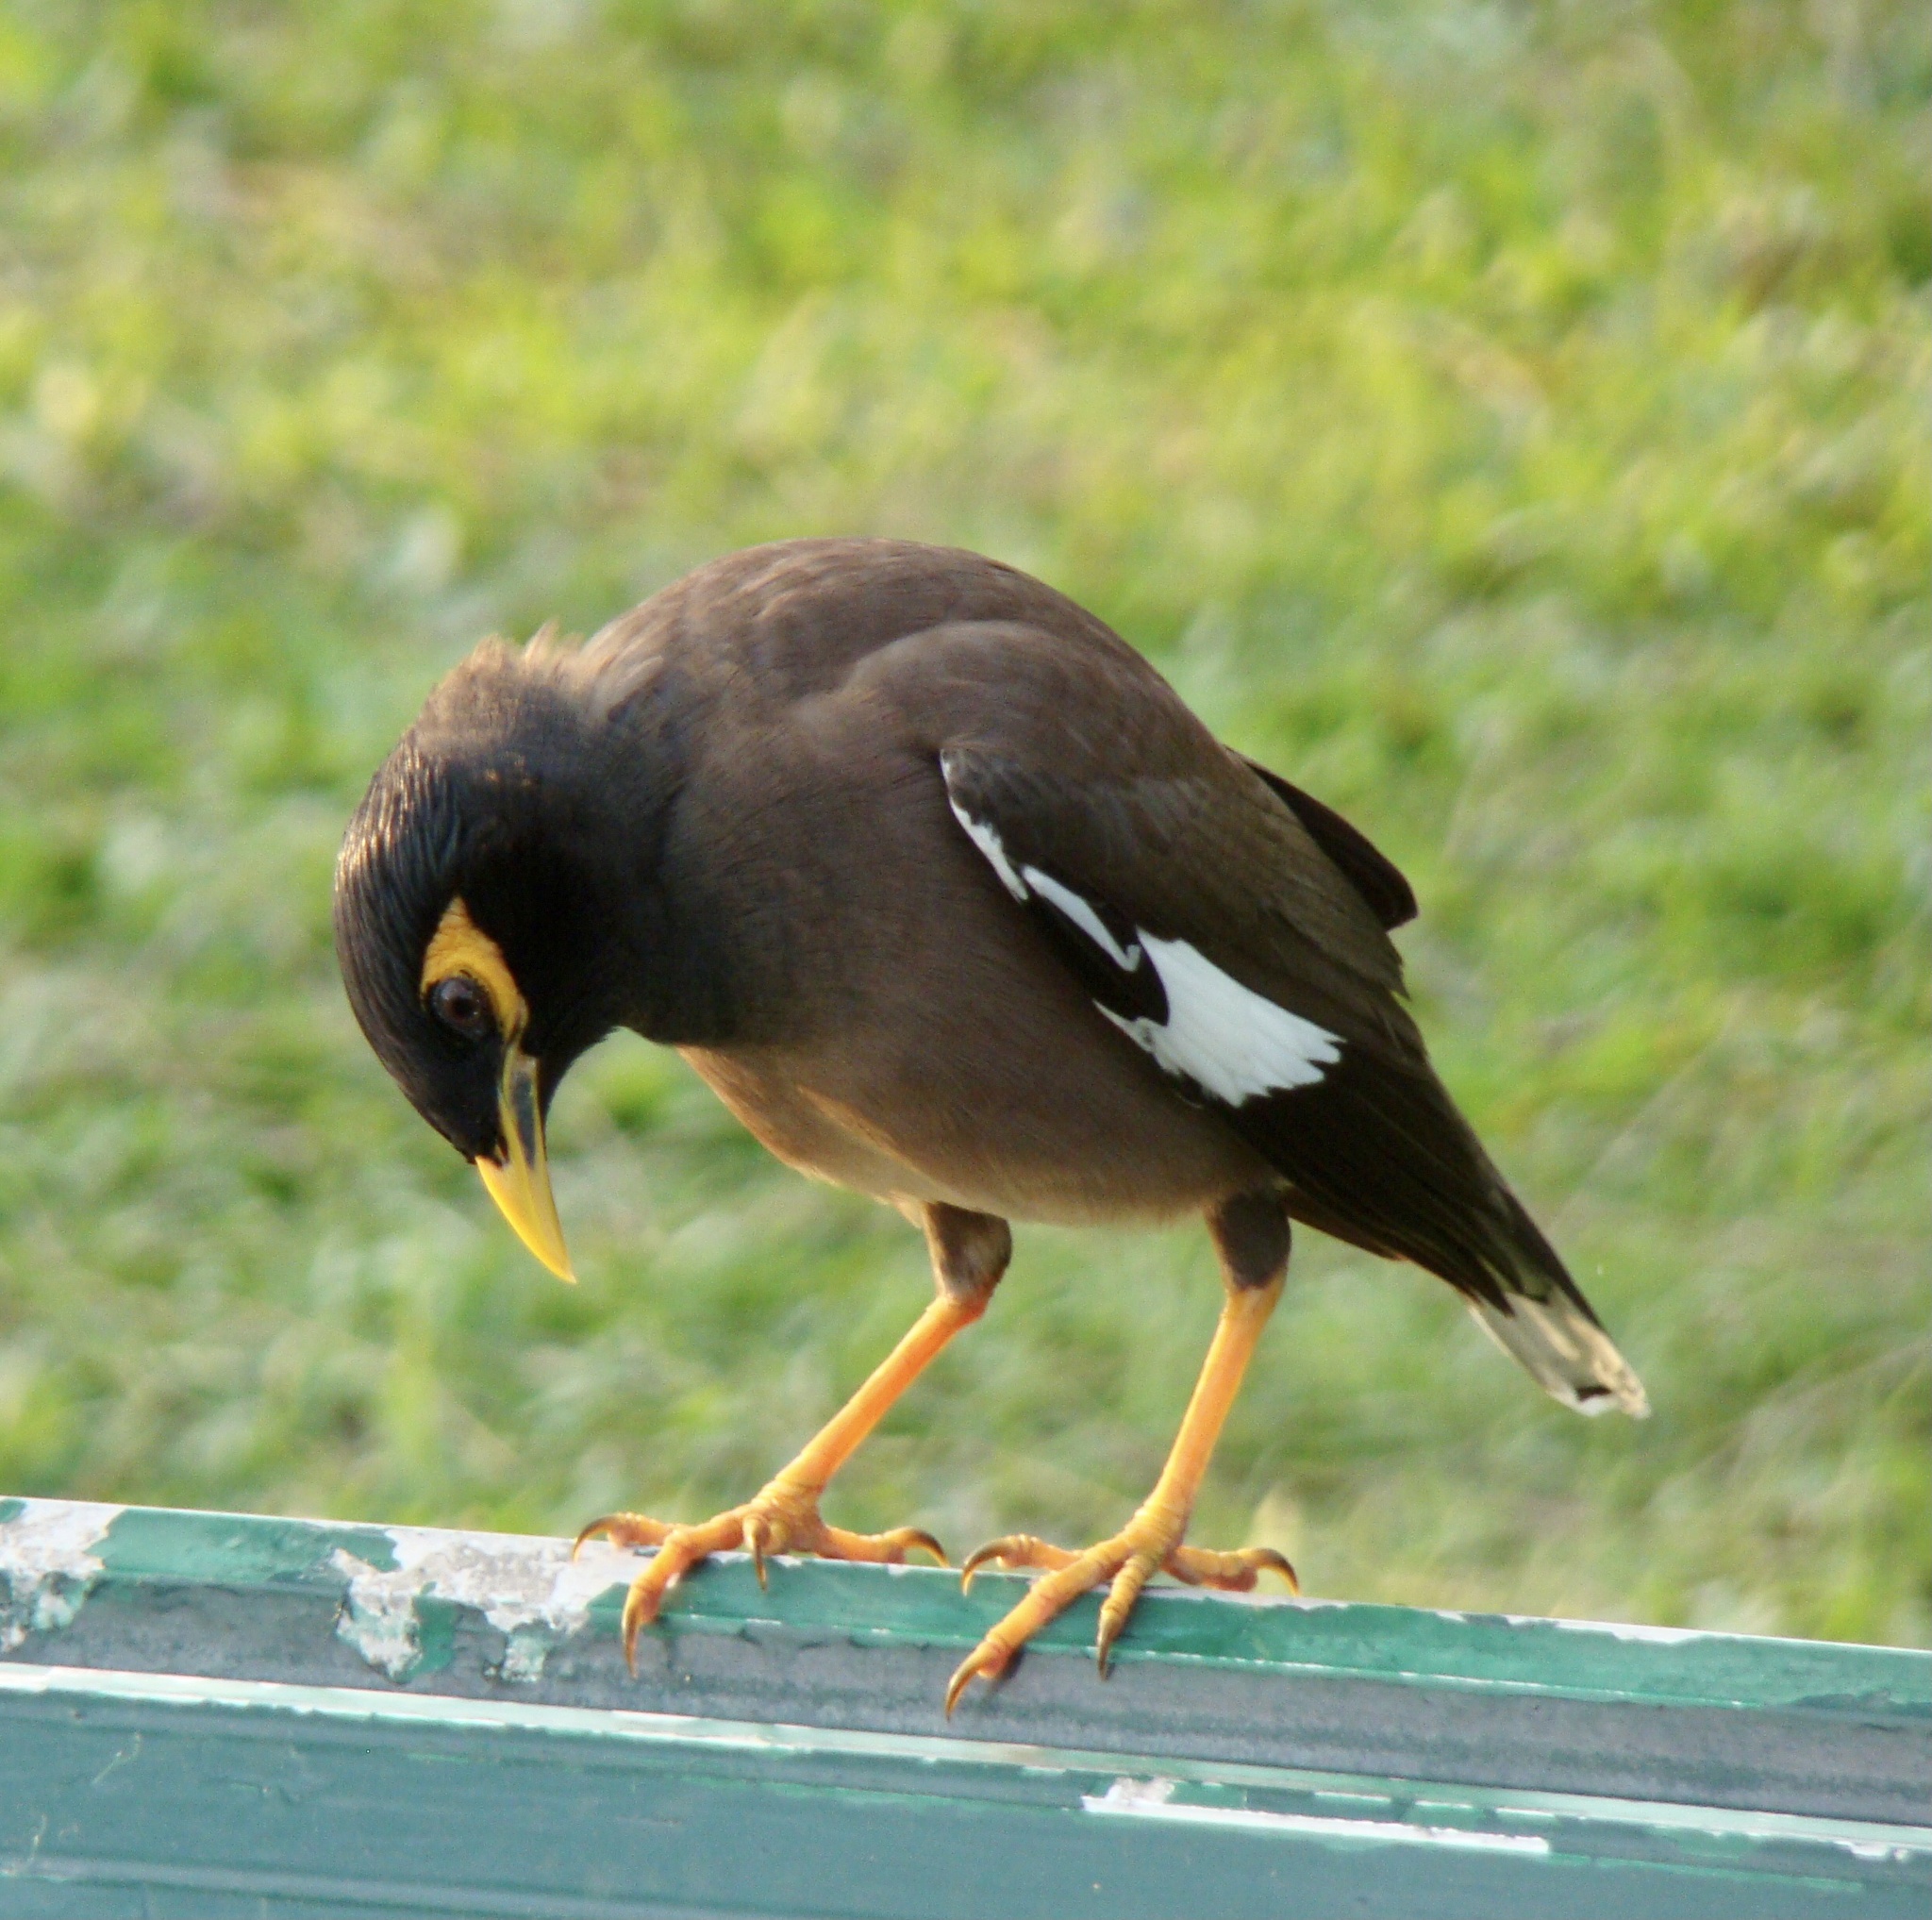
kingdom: Animalia
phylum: Chordata
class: Aves
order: Passeriformes
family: Sturnidae
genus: Acridotheres
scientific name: Acridotheres tristis
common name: Common myna
